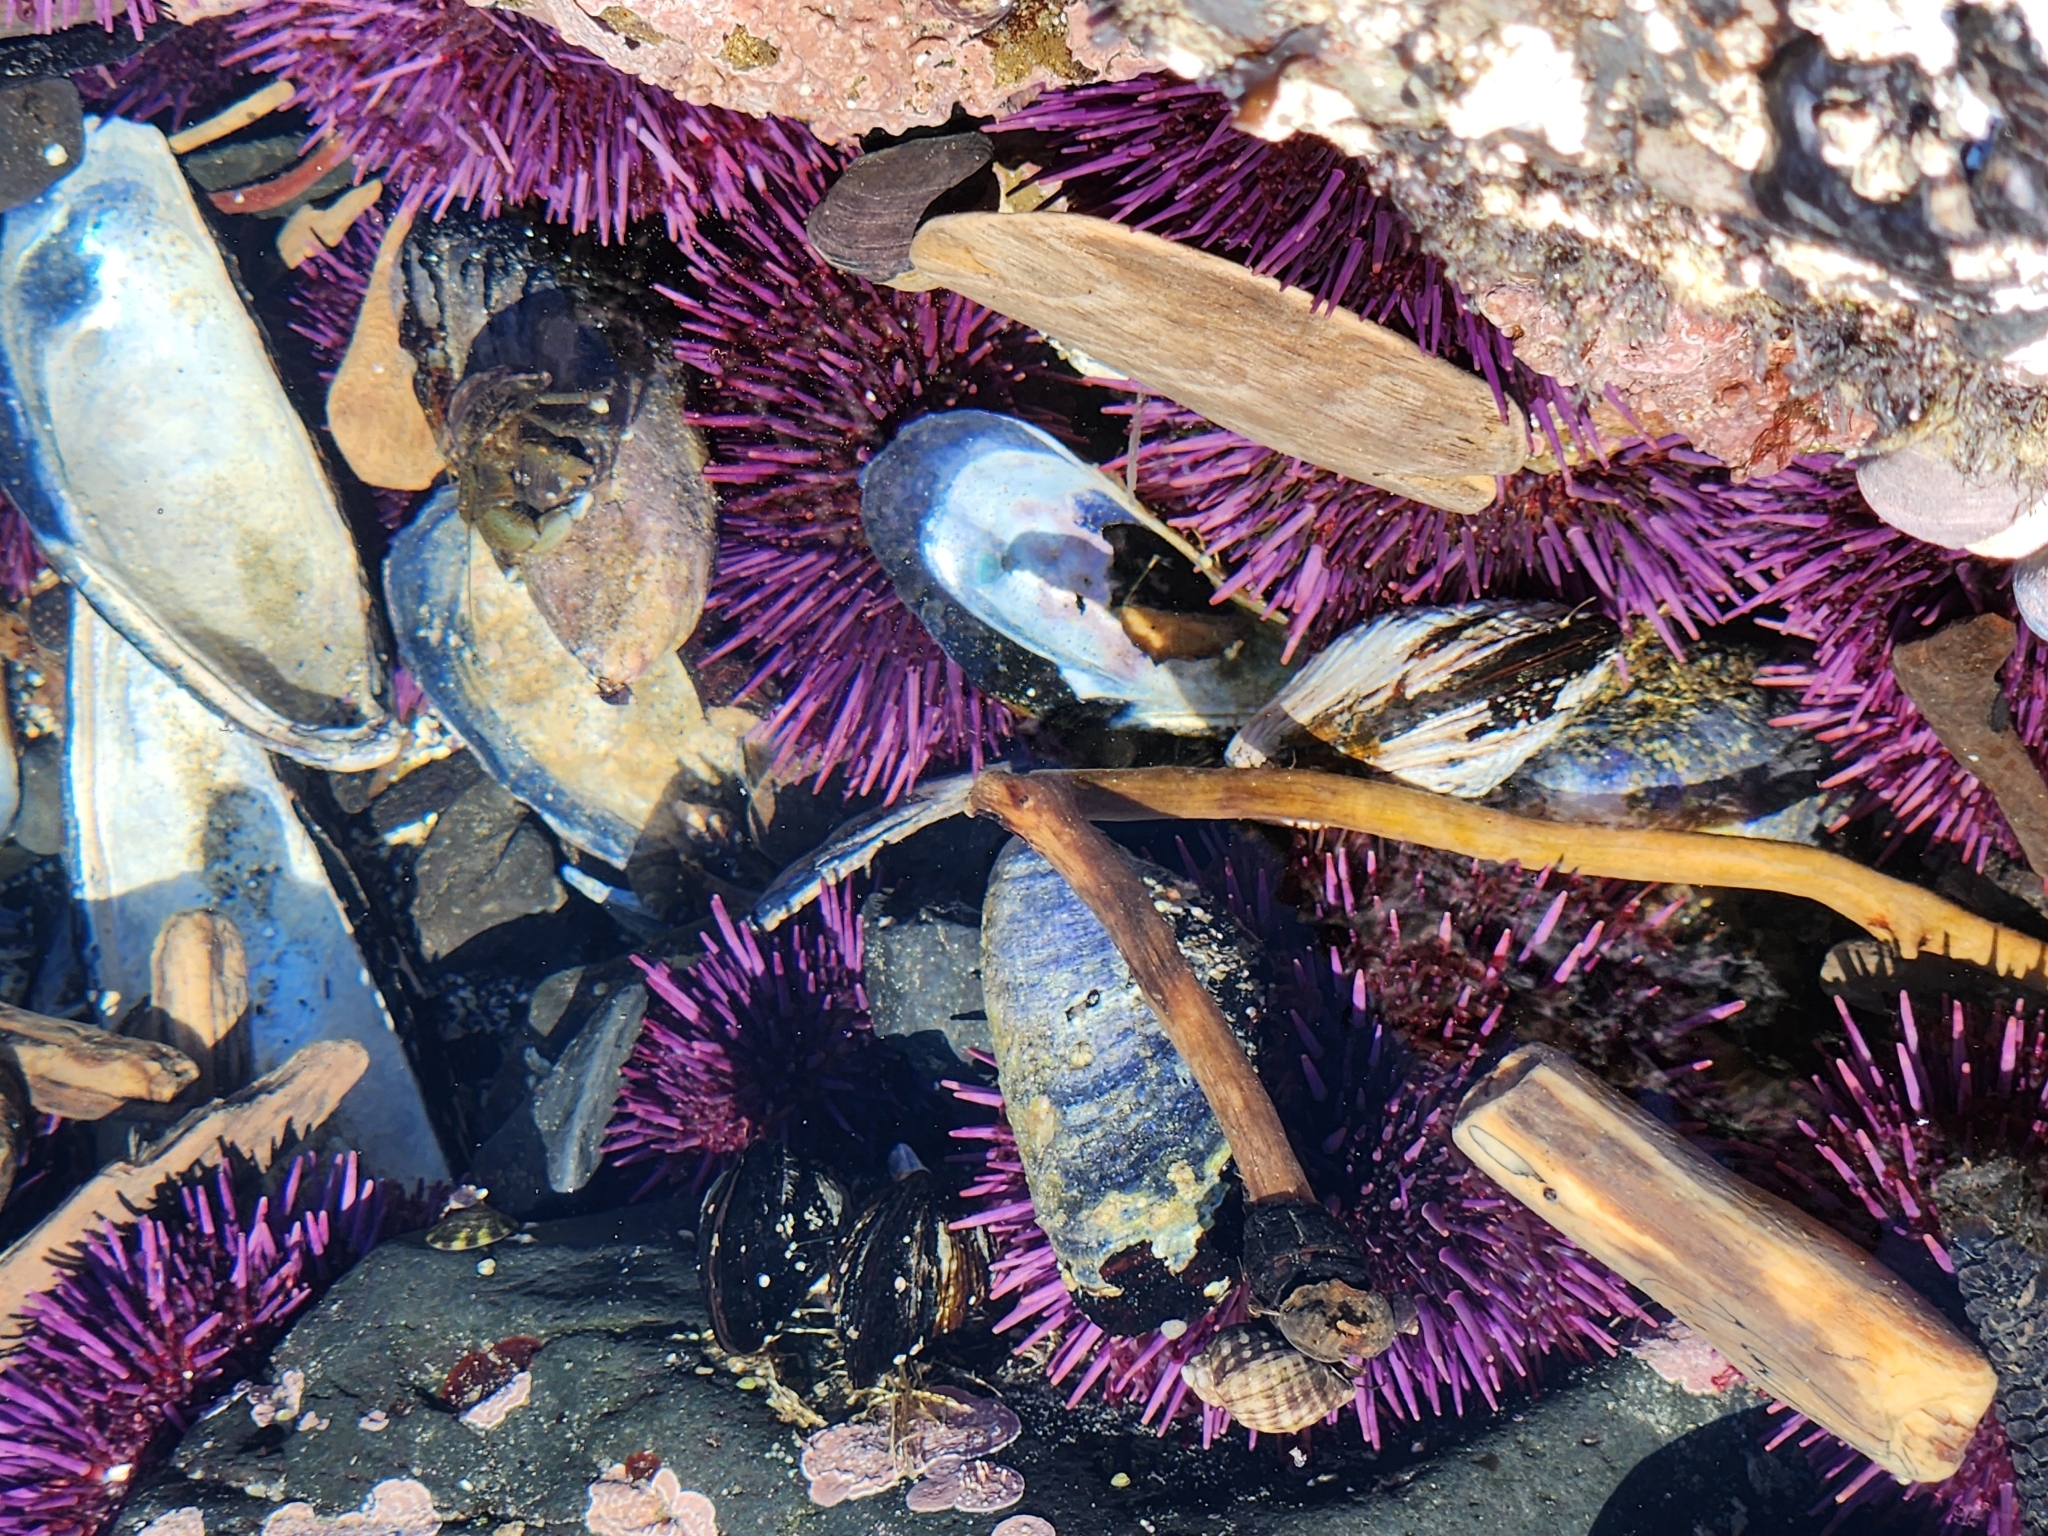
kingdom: Animalia
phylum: Echinodermata
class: Echinoidea
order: Camarodonta
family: Strongylocentrotidae
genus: Strongylocentrotus
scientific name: Strongylocentrotus purpuratus
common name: Purple sea urchin
